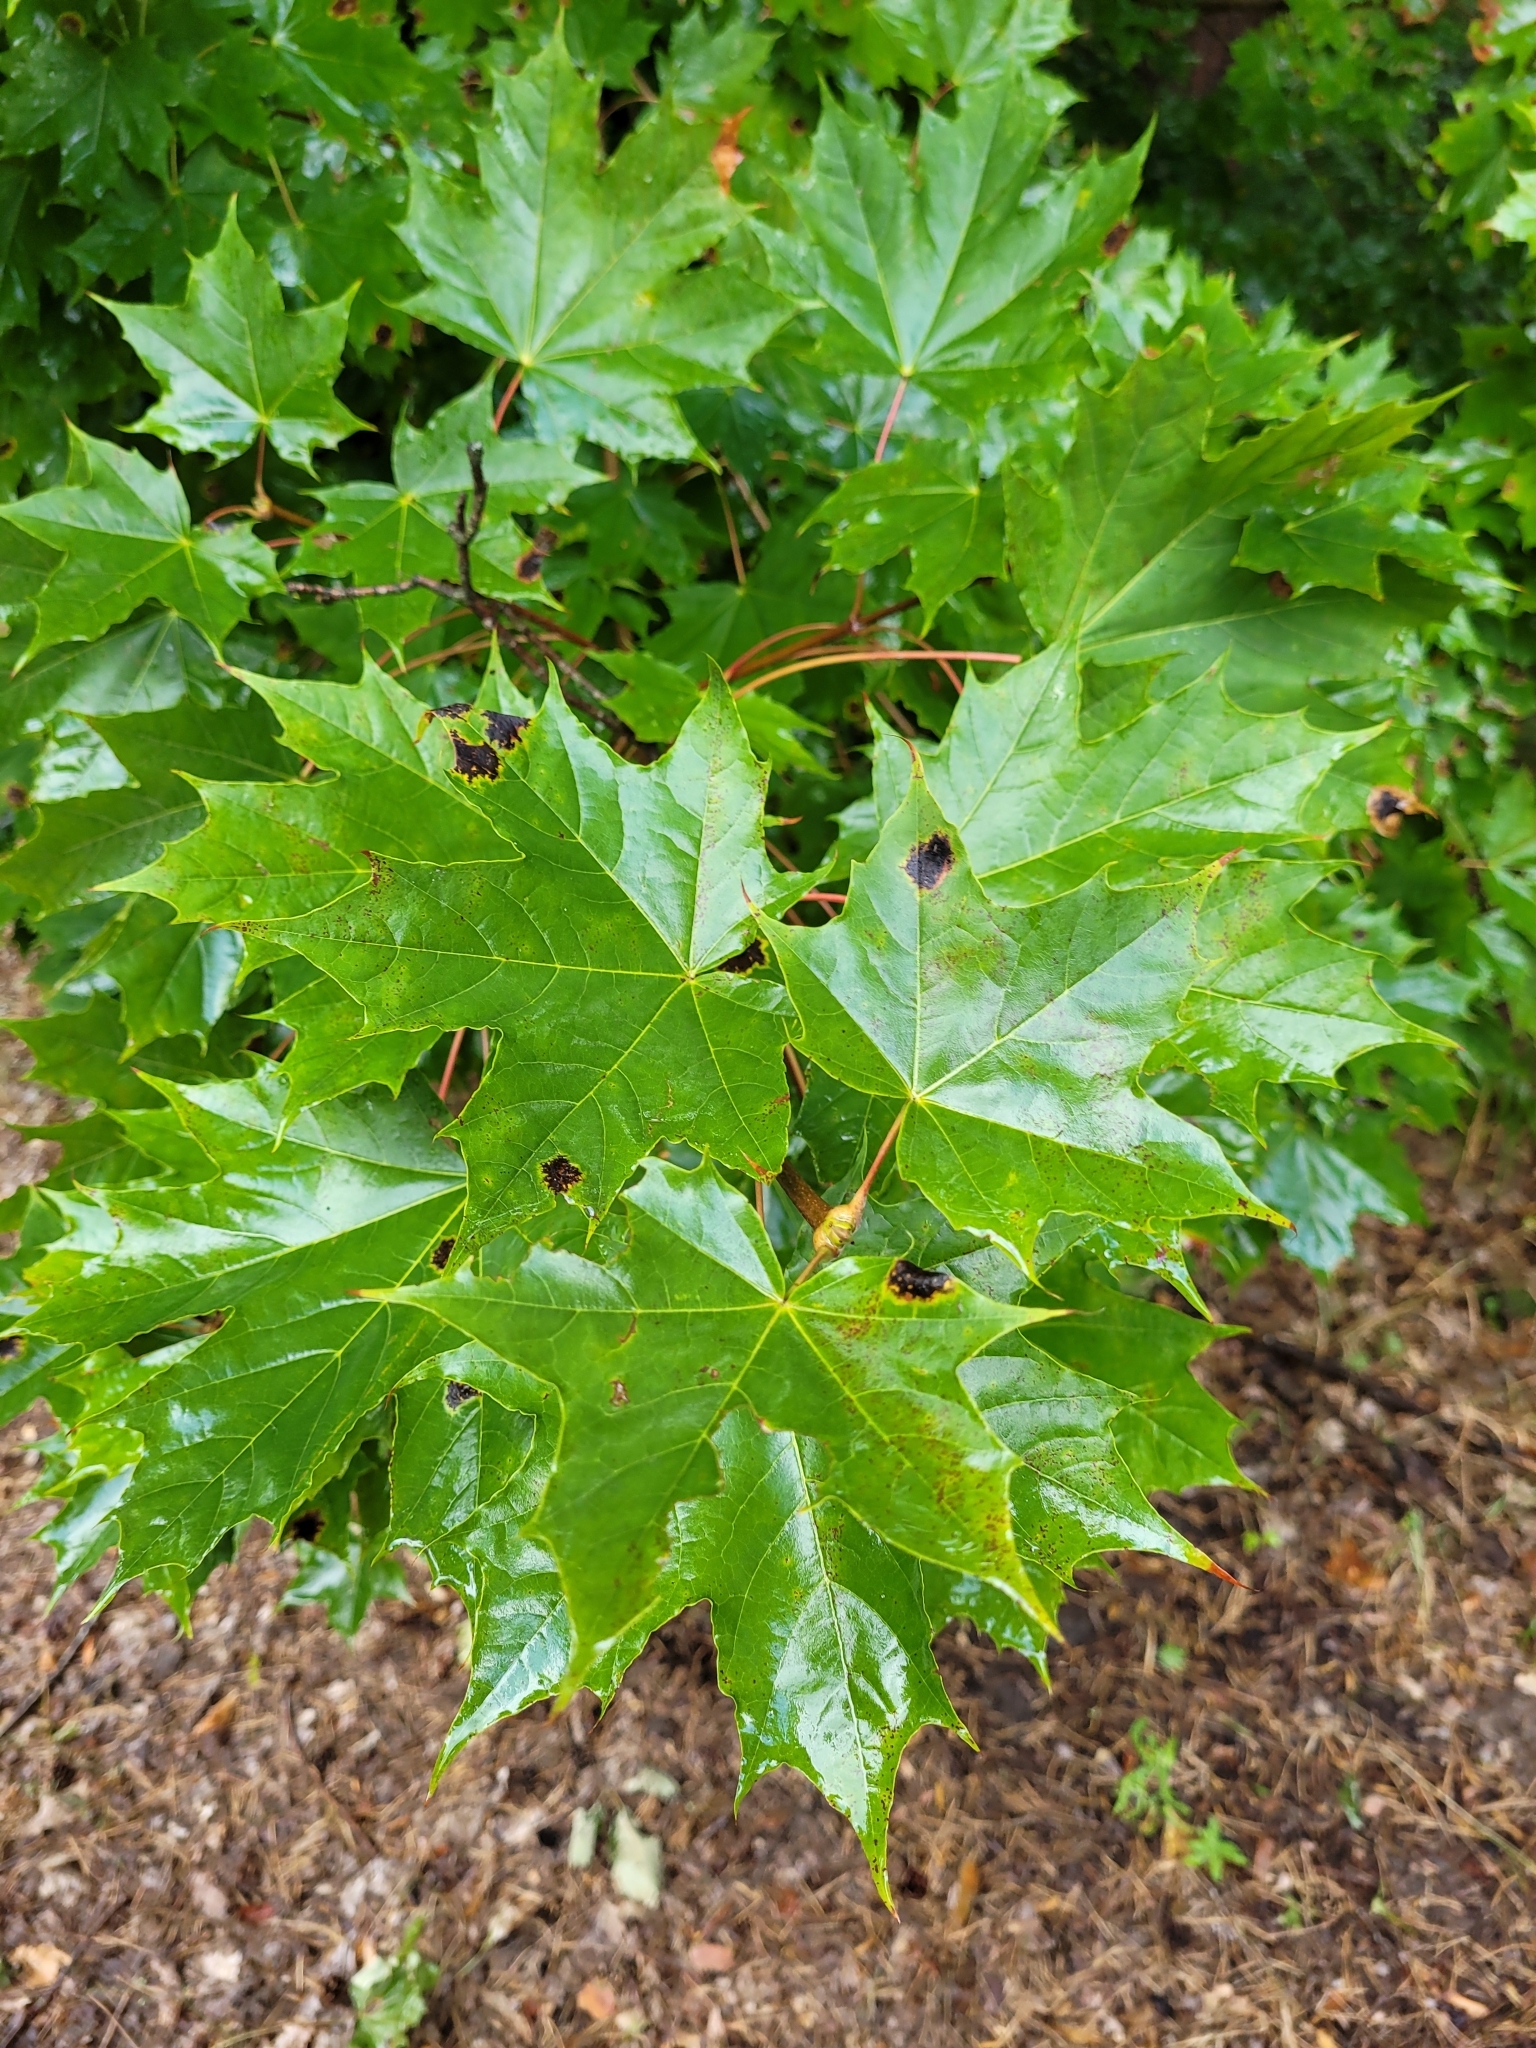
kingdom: Plantae
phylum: Tracheophyta
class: Magnoliopsida
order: Sapindales
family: Sapindaceae
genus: Acer
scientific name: Acer platanoides
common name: Norway maple
